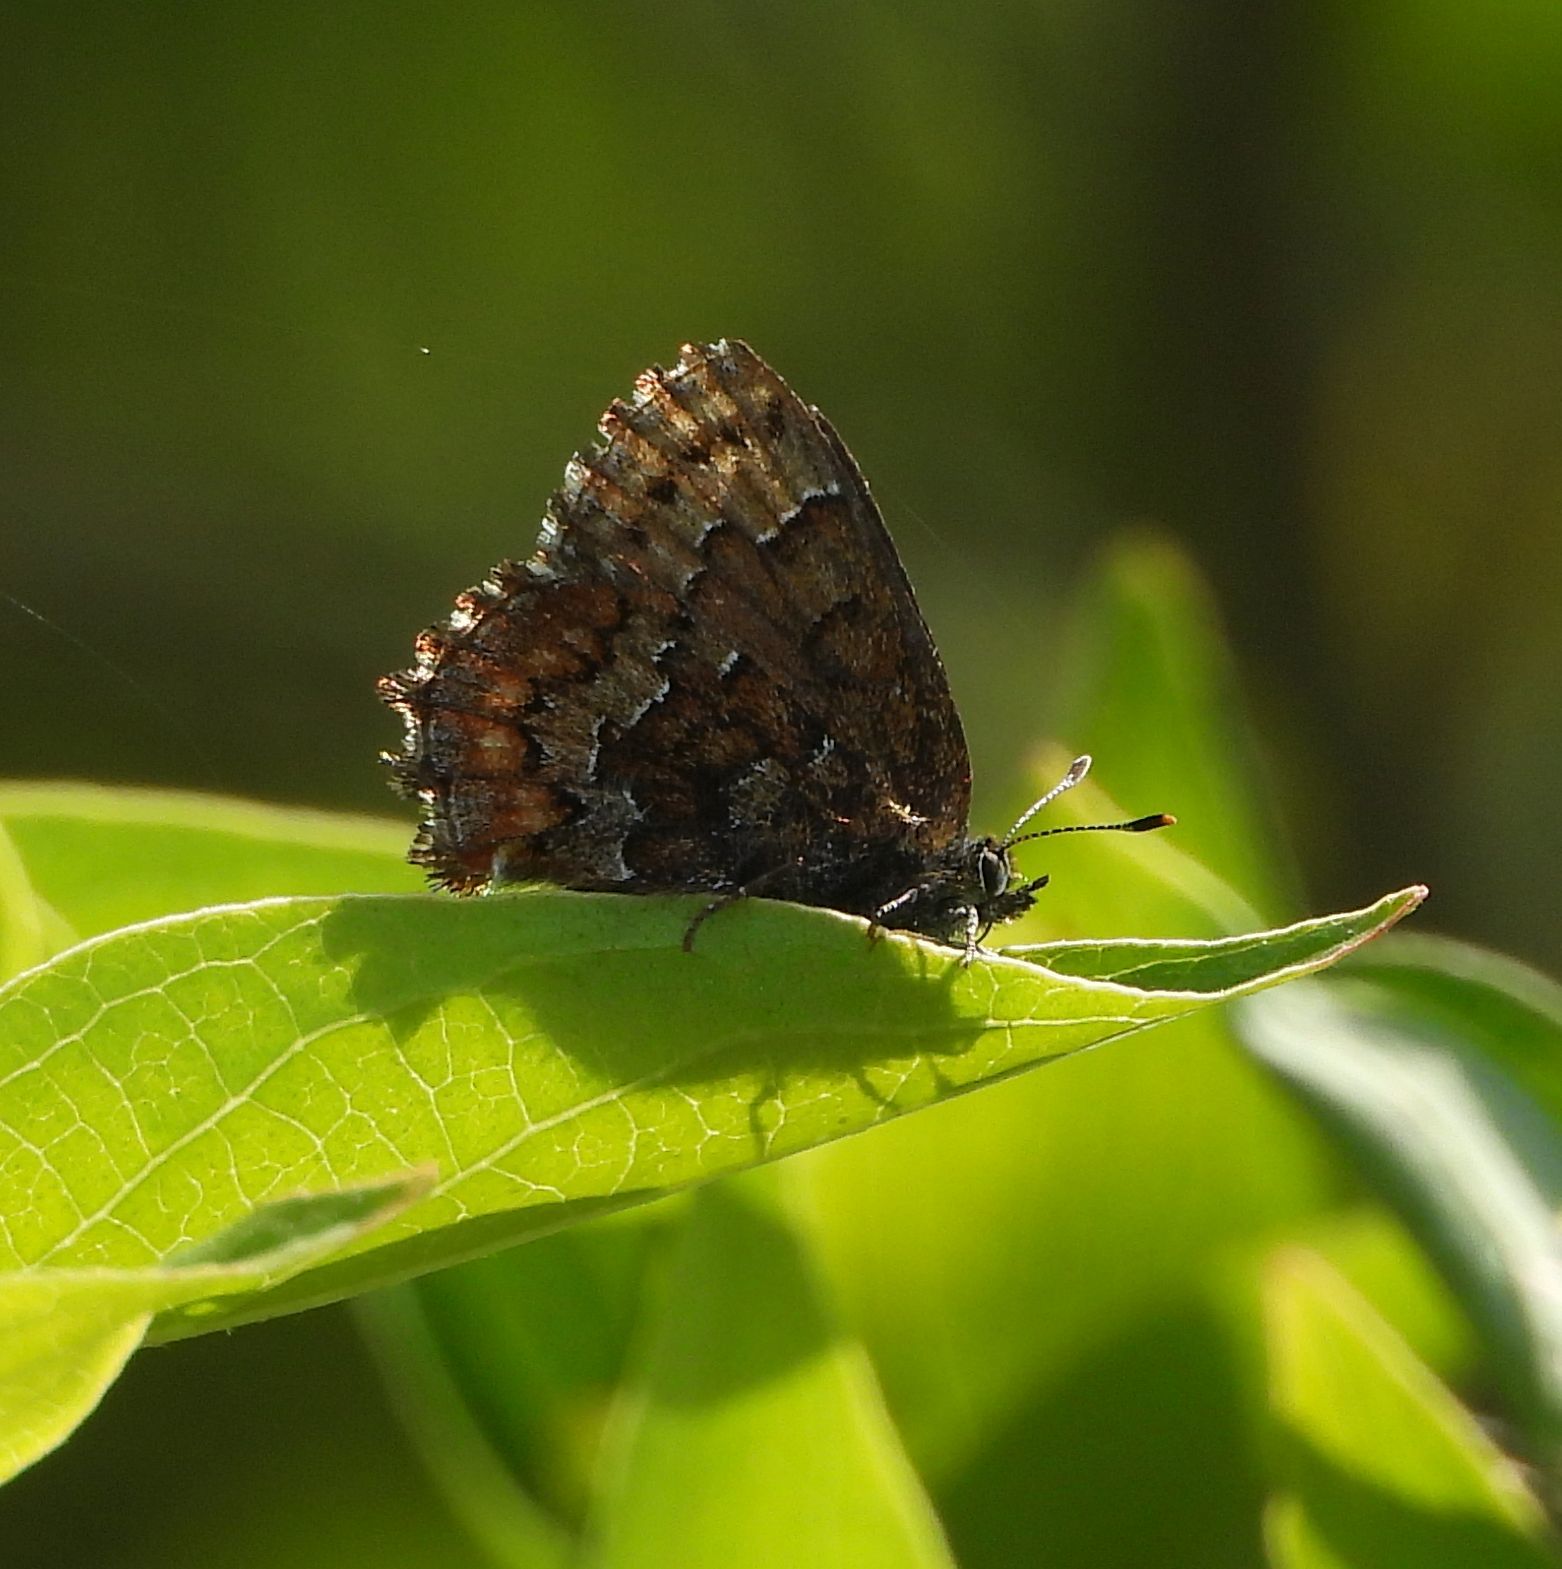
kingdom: Animalia
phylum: Arthropoda
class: Insecta
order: Lepidoptera
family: Lycaenidae
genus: Incisalia
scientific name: Incisalia niphon
